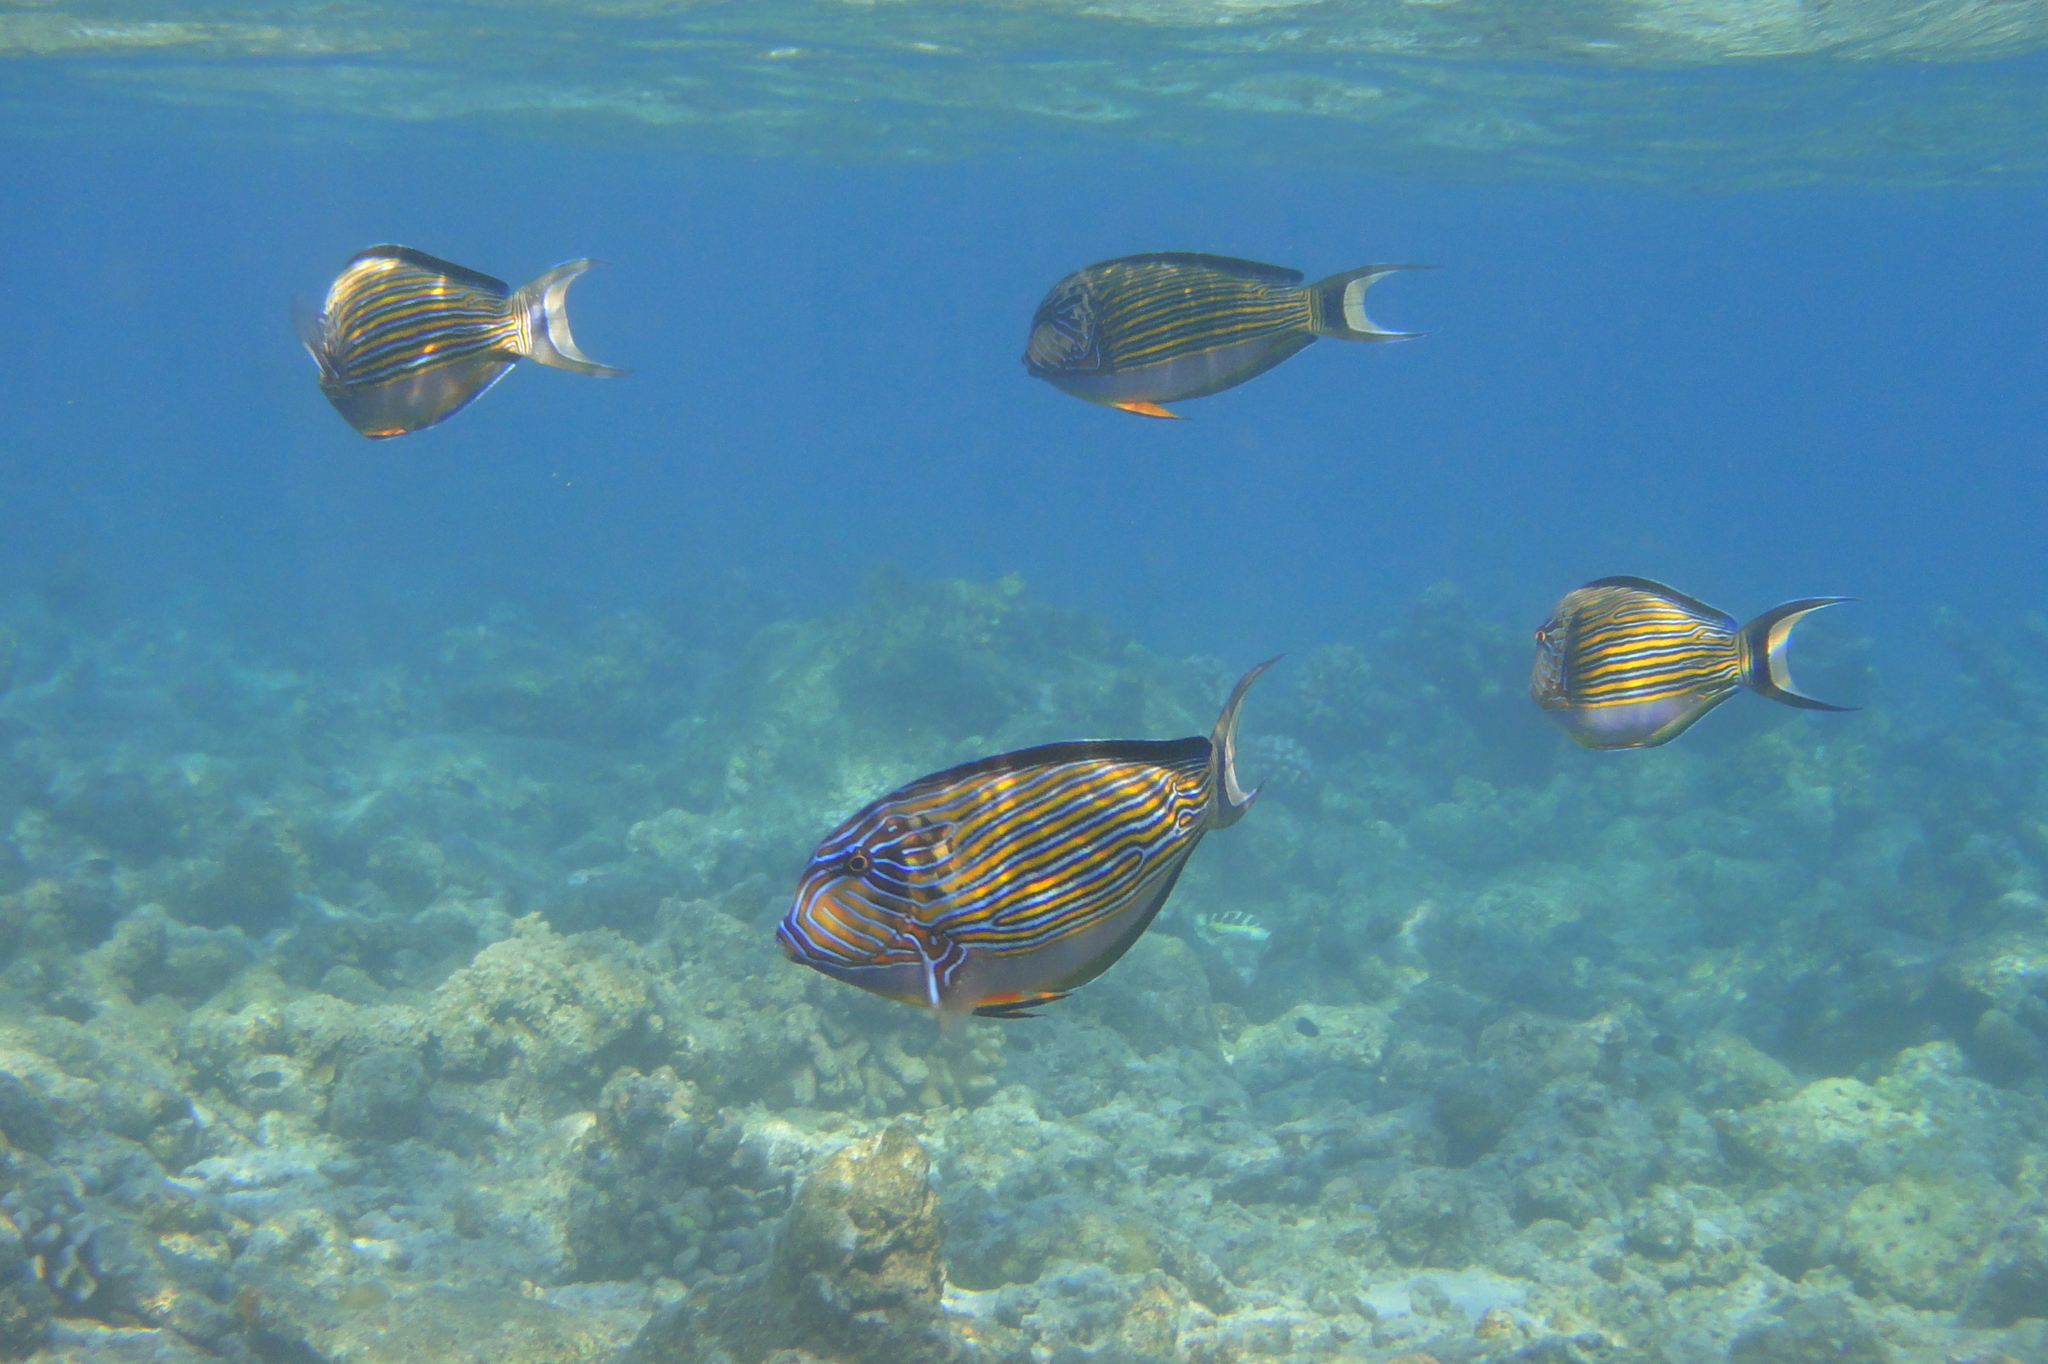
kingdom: Animalia
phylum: Chordata
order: Perciformes
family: Acanthuridae
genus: Acanthurus
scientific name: Acanthurus lineatus
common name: Striped surgeonfish
